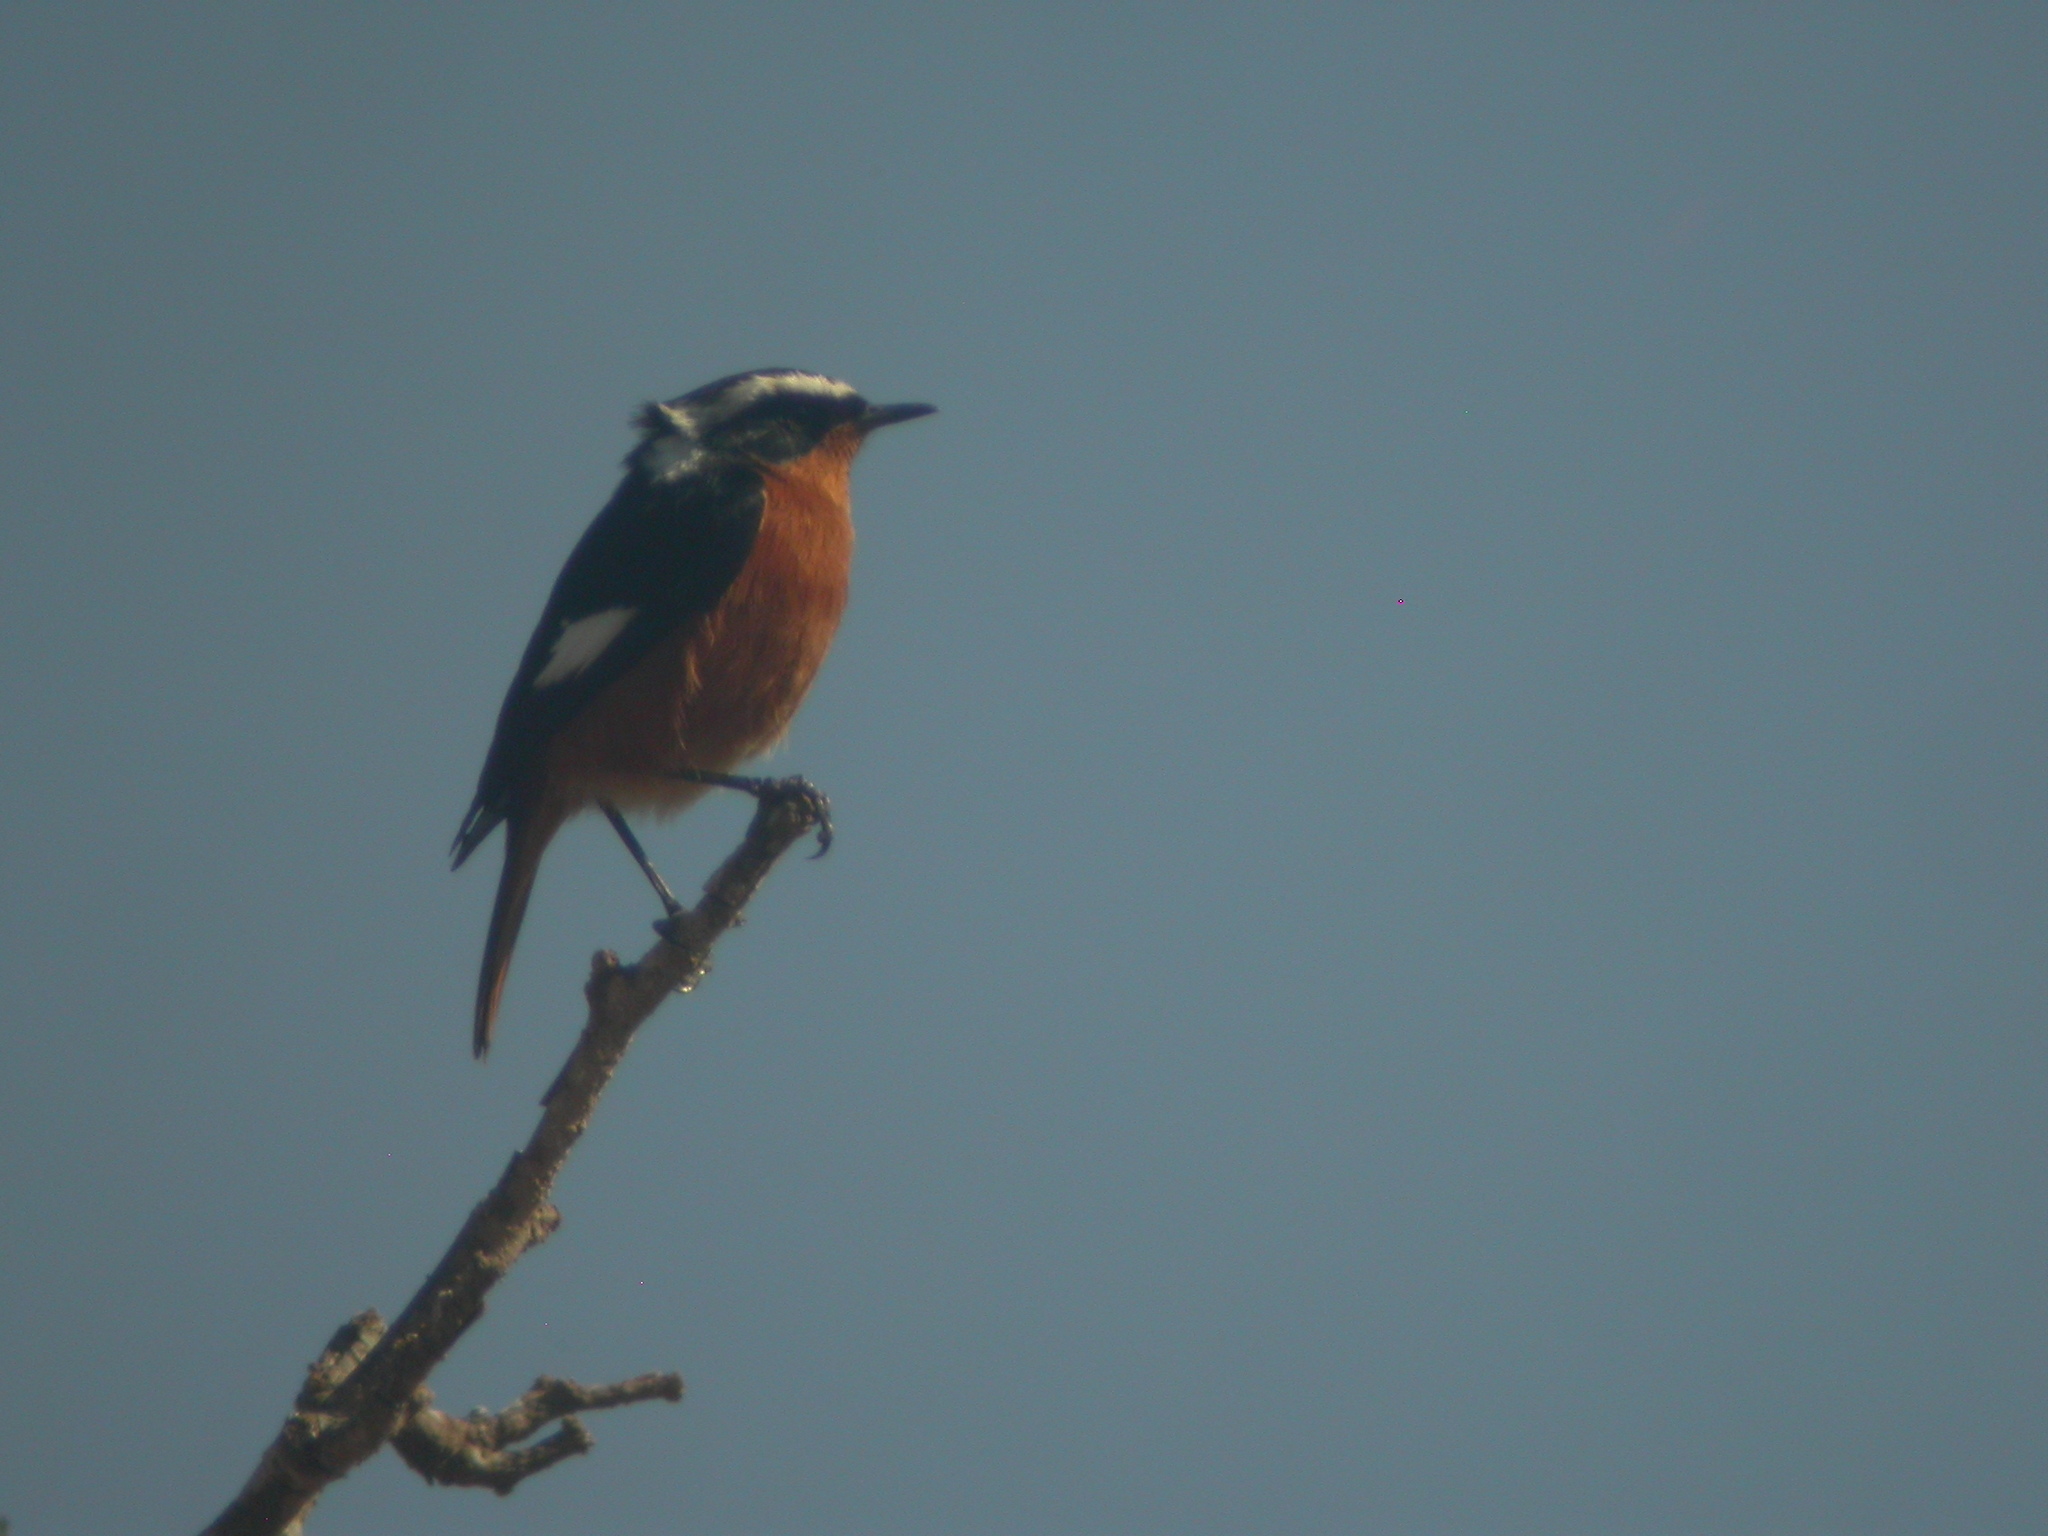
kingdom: Animalia
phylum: Chordata
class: Aves
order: Passeriformes
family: Muscicapidae
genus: Phoenicurus
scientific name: Phoenicurus moussieri
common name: Moussier's redstart
